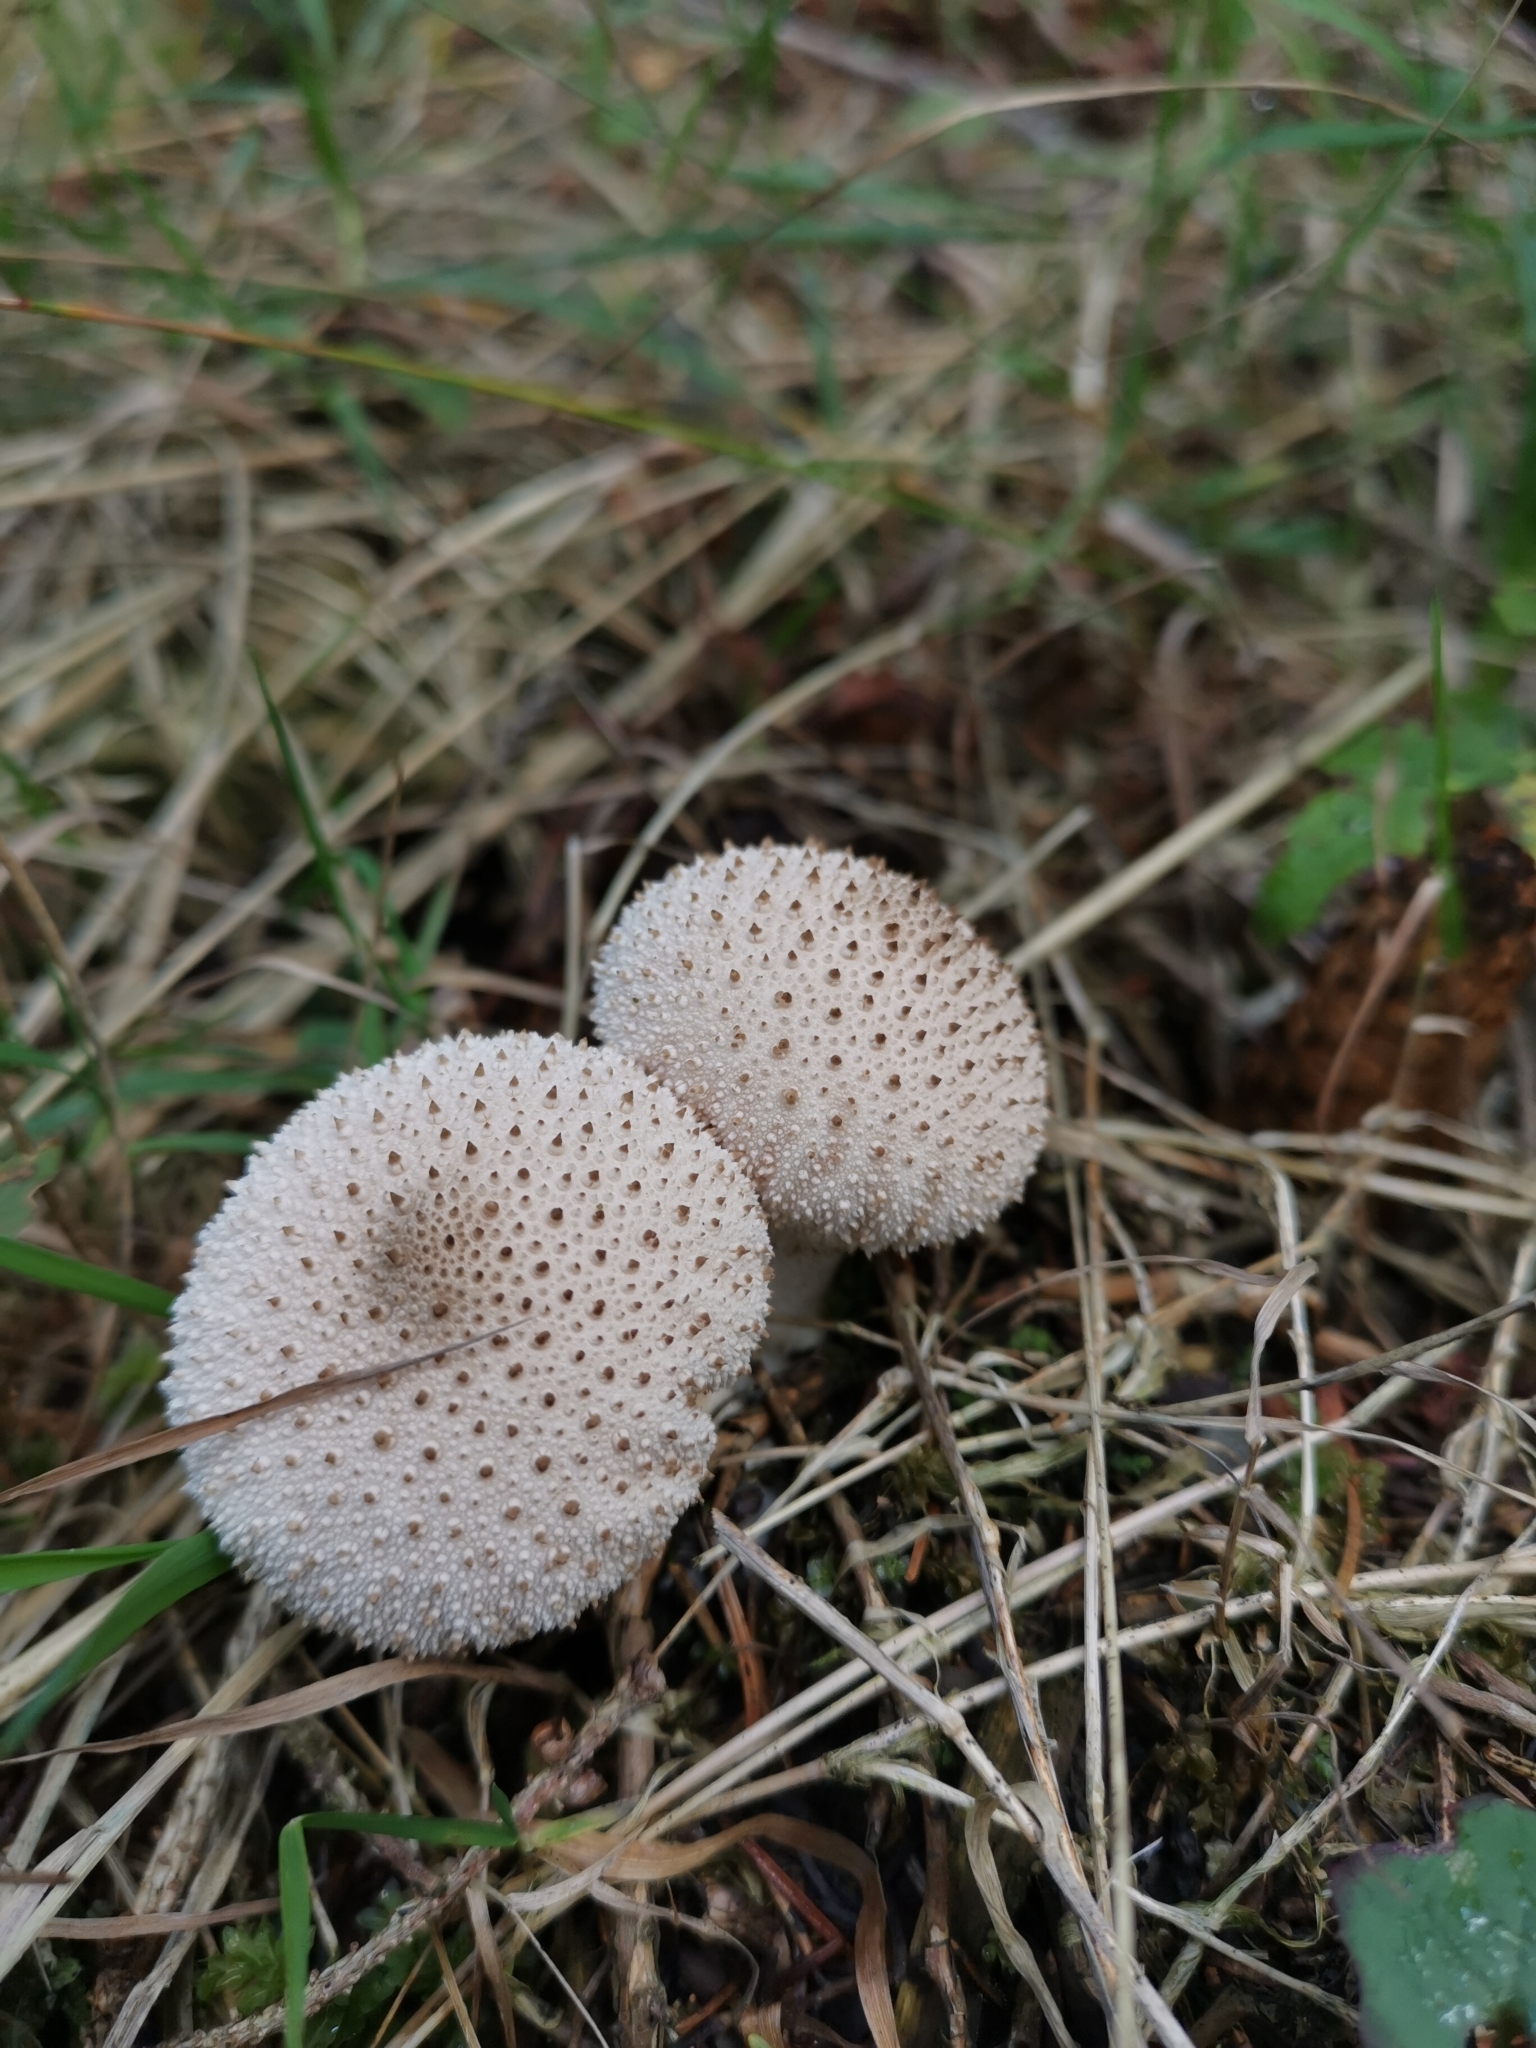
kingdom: Fungi
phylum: Basidiomycota
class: Agaricomycetes
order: Agaricales
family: Lycoperdaceae
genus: Lycoperdon
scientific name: Lycoperdon perlatum
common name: Common puffball
